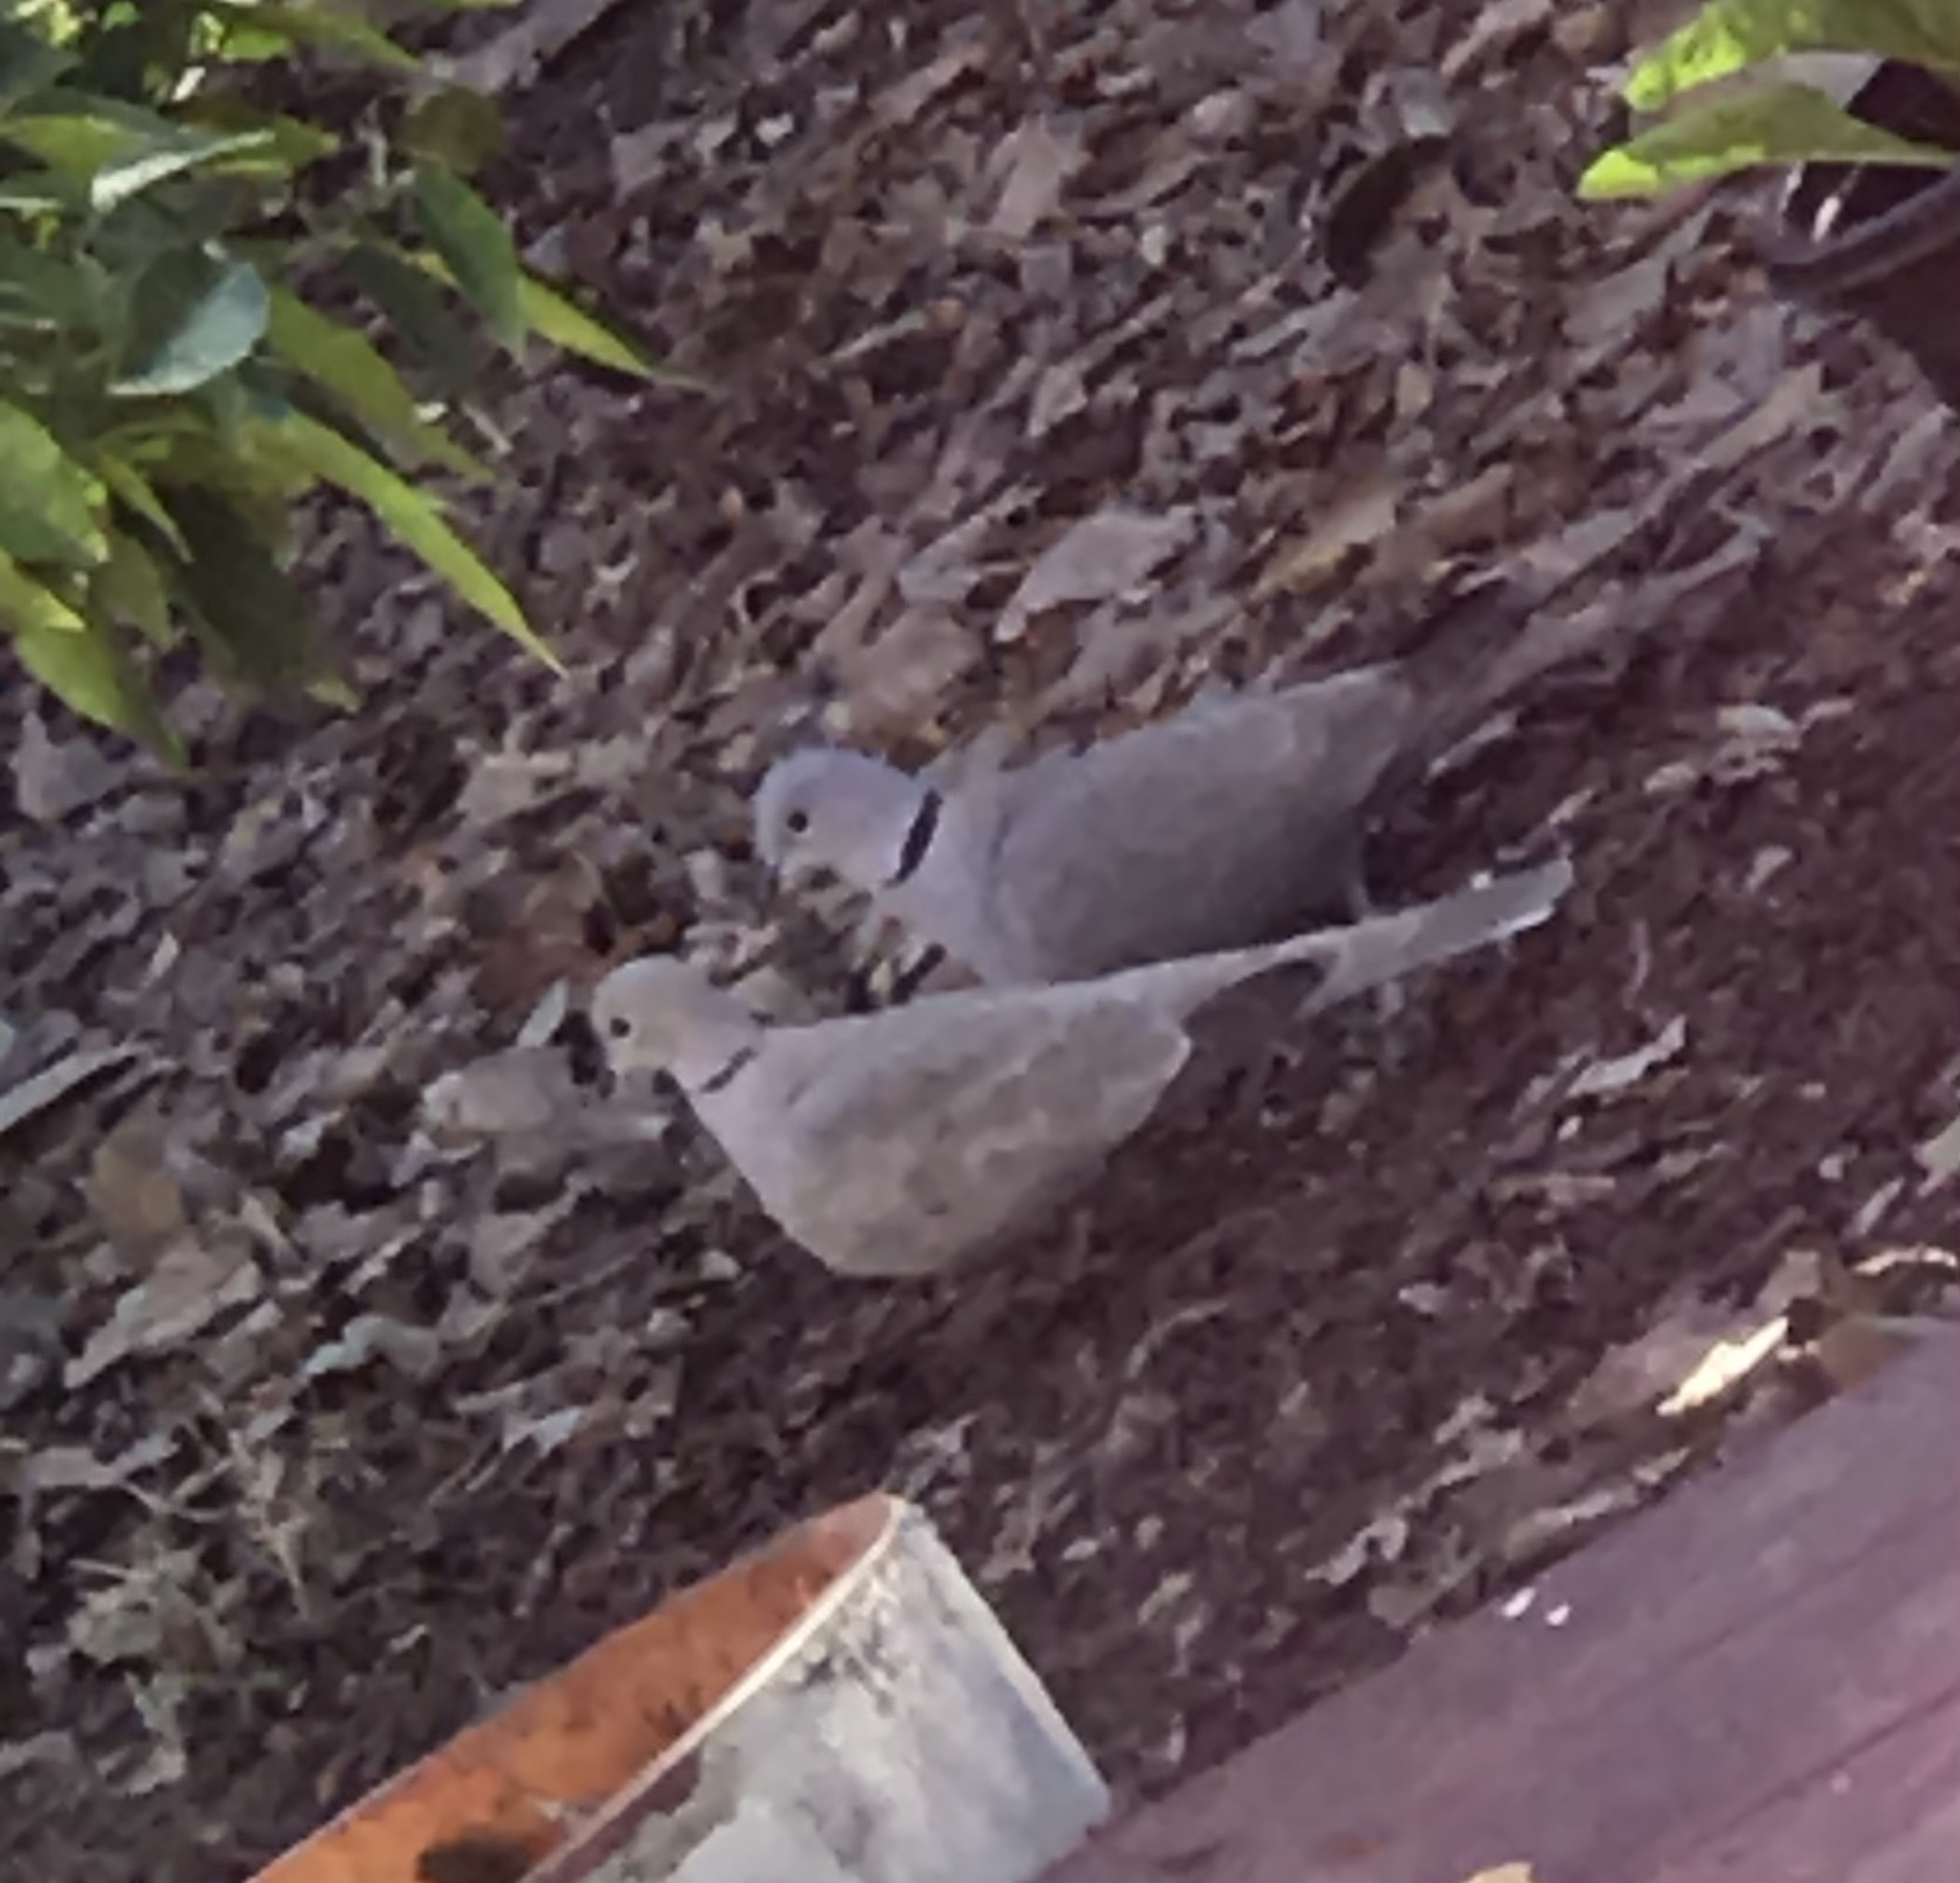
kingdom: Animalia
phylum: Chordata
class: Aves
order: Columbiformes
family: Columbidae
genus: Streptopelia
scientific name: Streptopelia decaocto
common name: Eurasian collared dove
